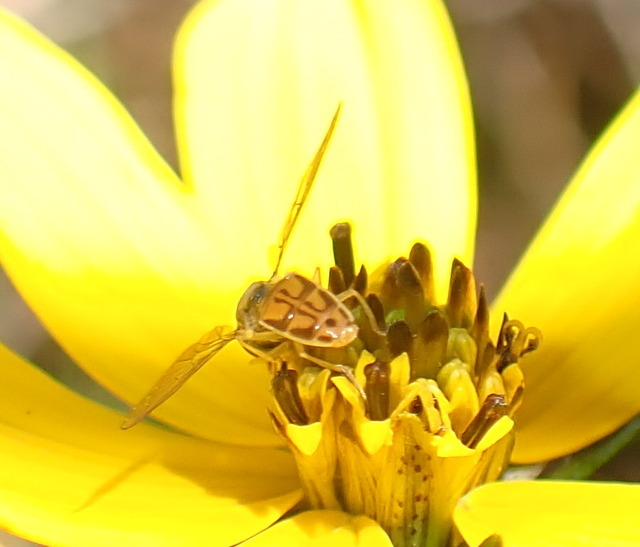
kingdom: Animalia
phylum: Arthropoda
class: Insecta
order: Diptera
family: Syrphidae
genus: Toxomerus
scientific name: Toxomerus marginatus
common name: Syrphid fly
